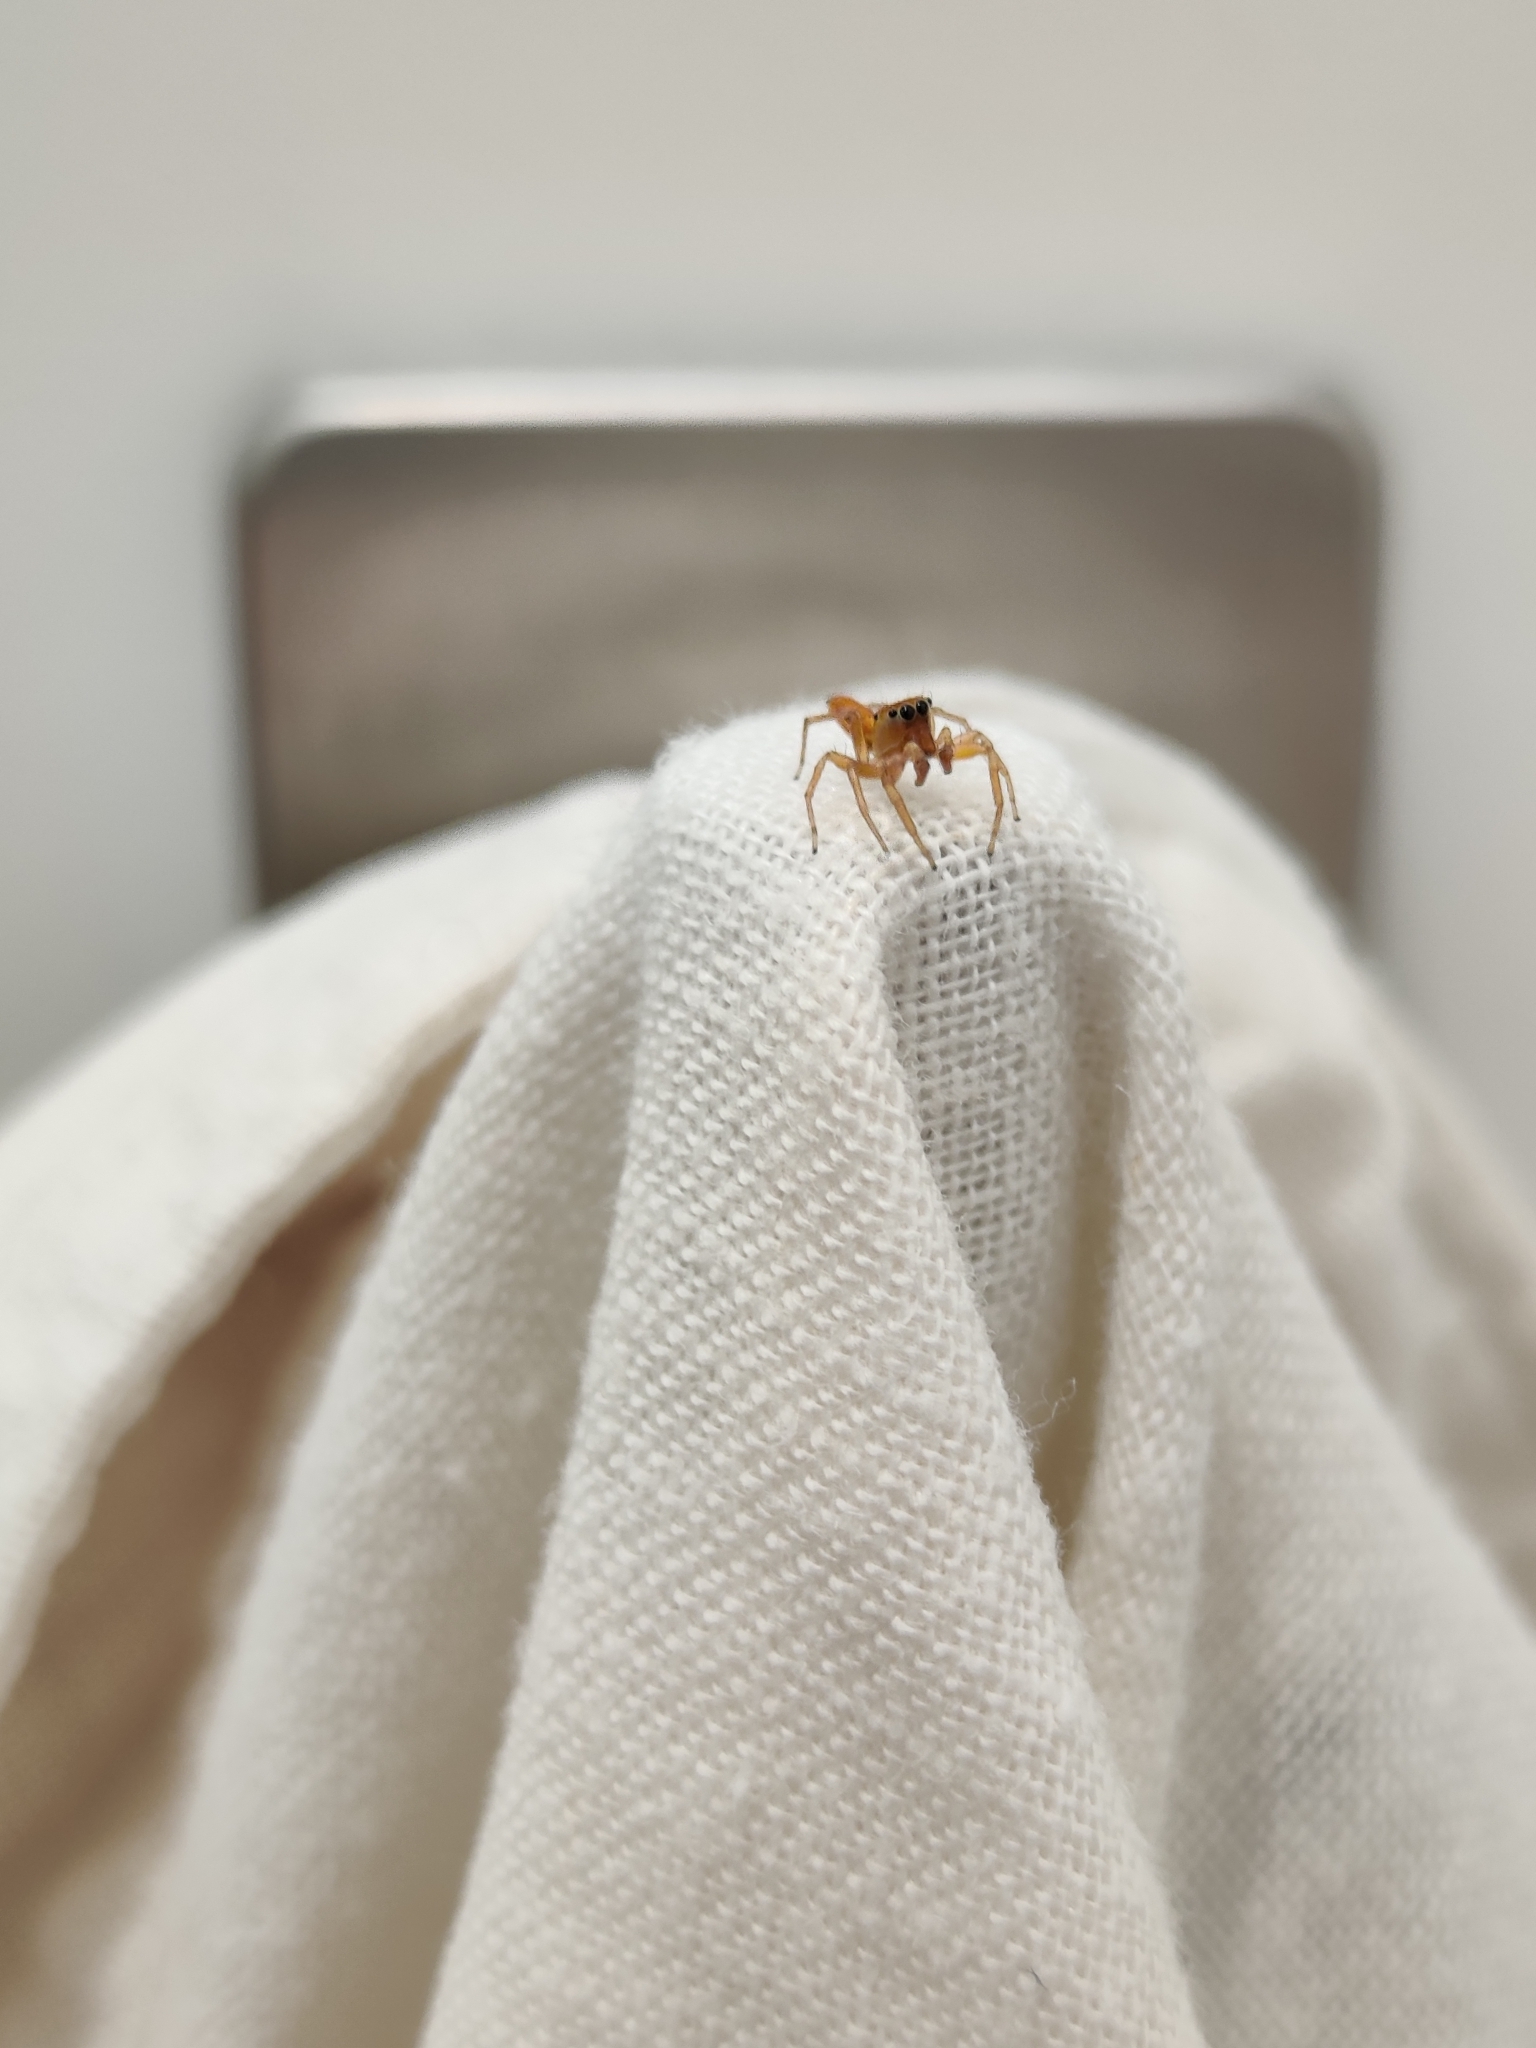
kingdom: Animalia
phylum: Arthropoda
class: Arachnida
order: Araneae
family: Salticidae
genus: Cosmophasis
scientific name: Cosmophasis lami
